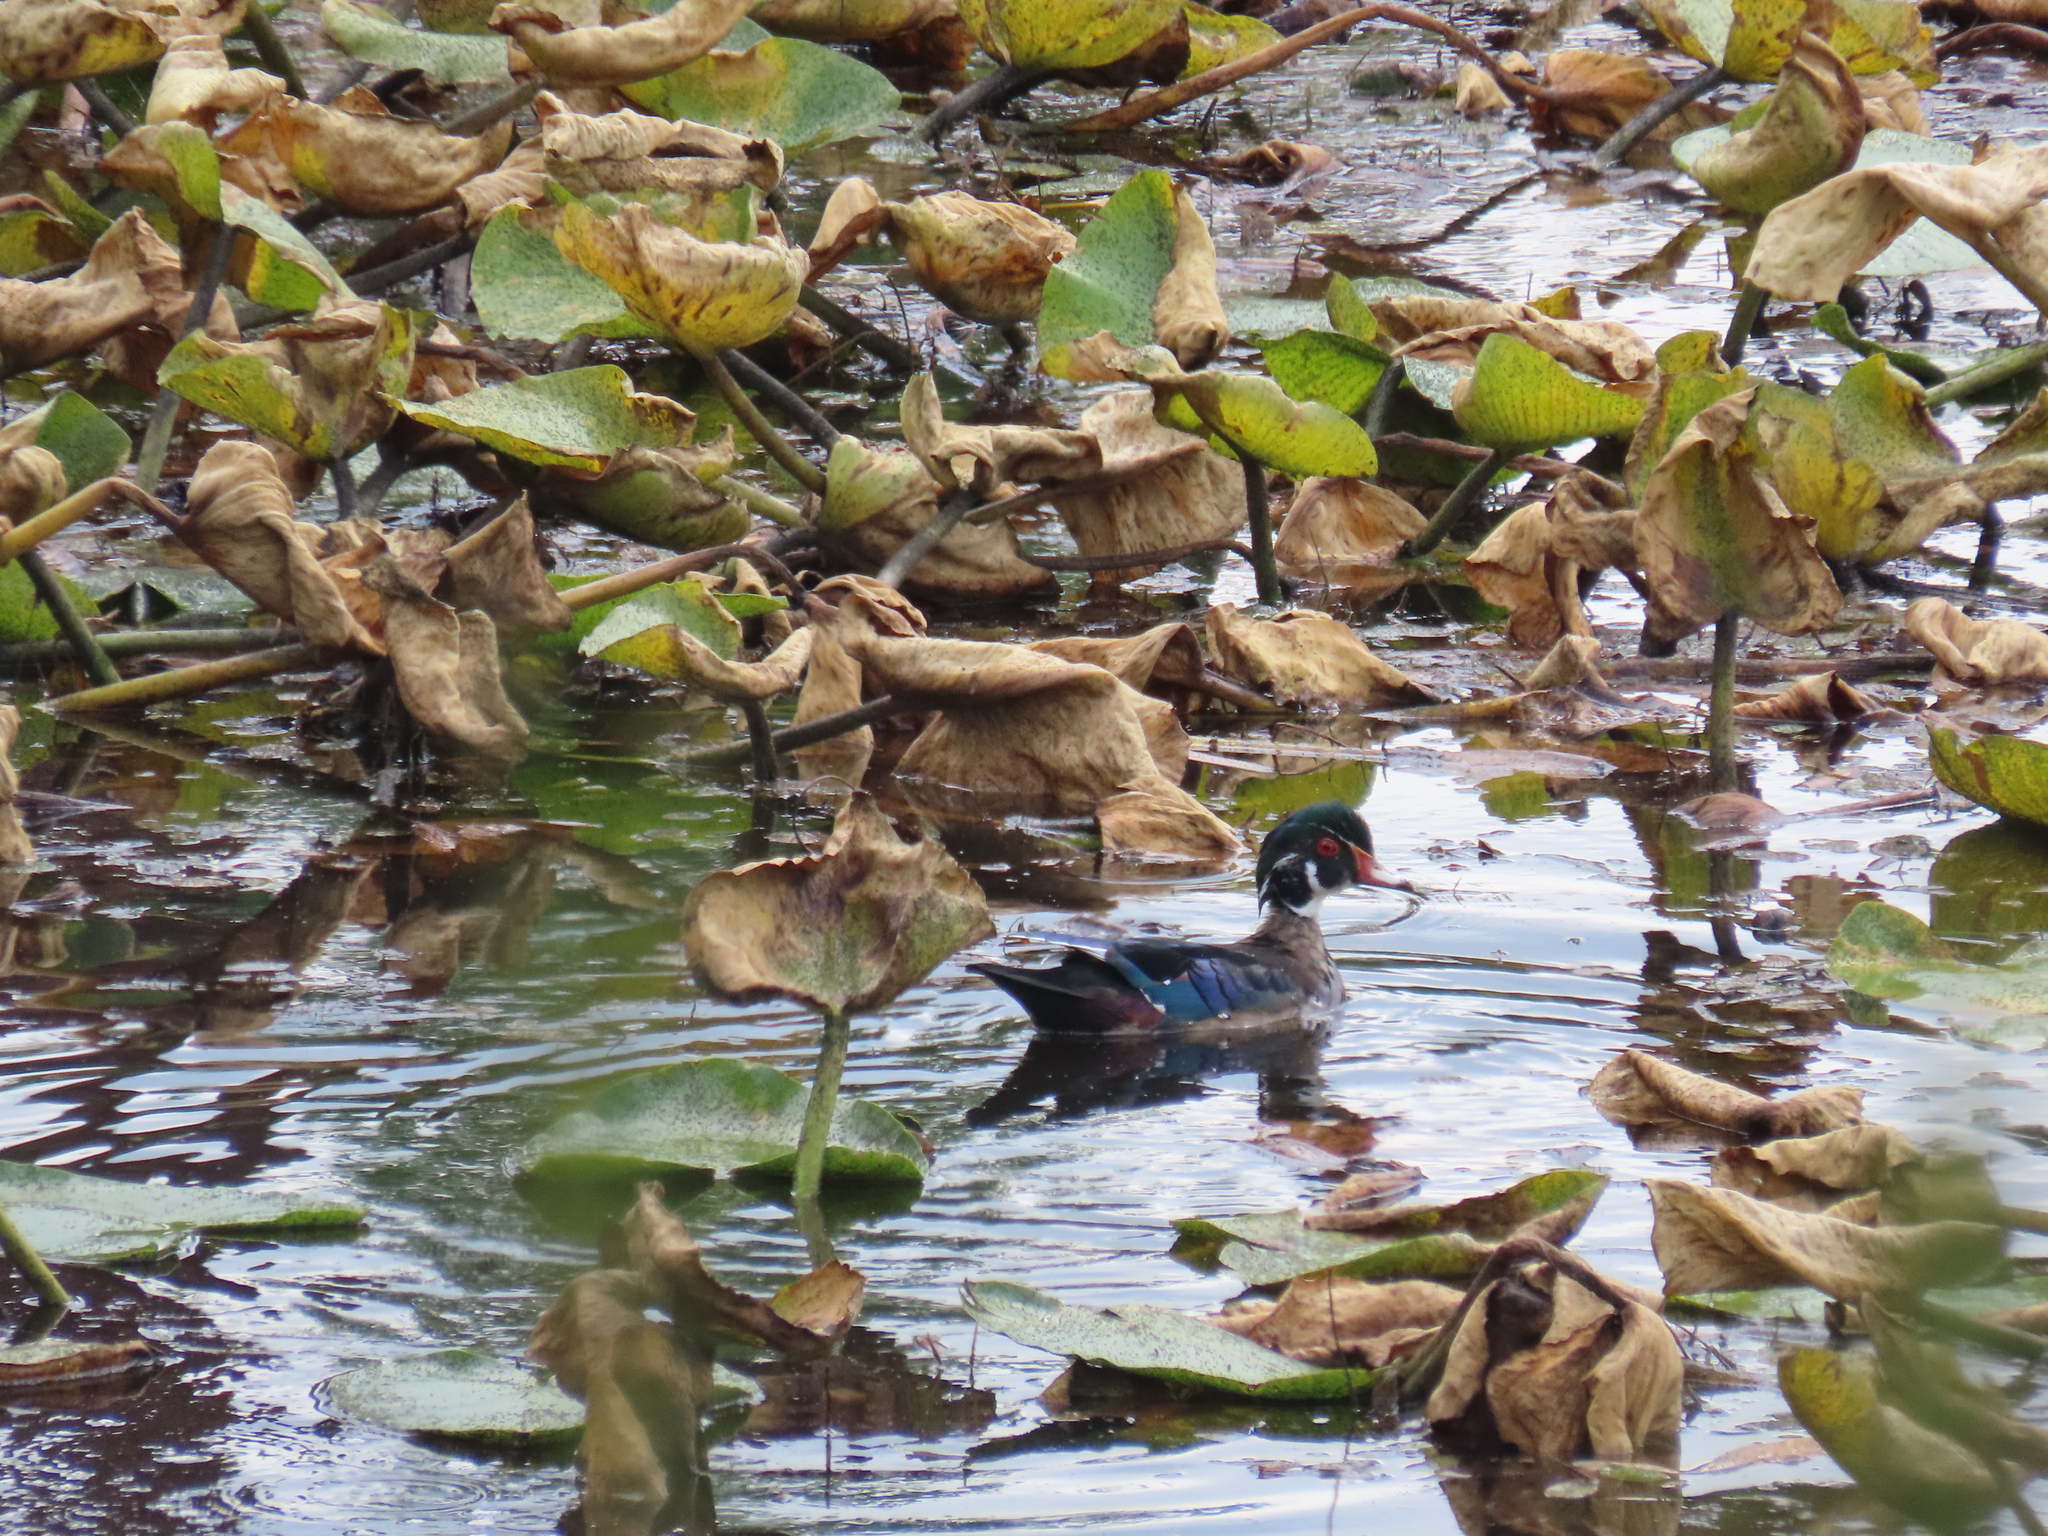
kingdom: Animalia
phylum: Chordata
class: Aves
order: Anseriformes
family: Anatidae
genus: Aix
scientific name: Aix sponsa
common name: Wood duck
